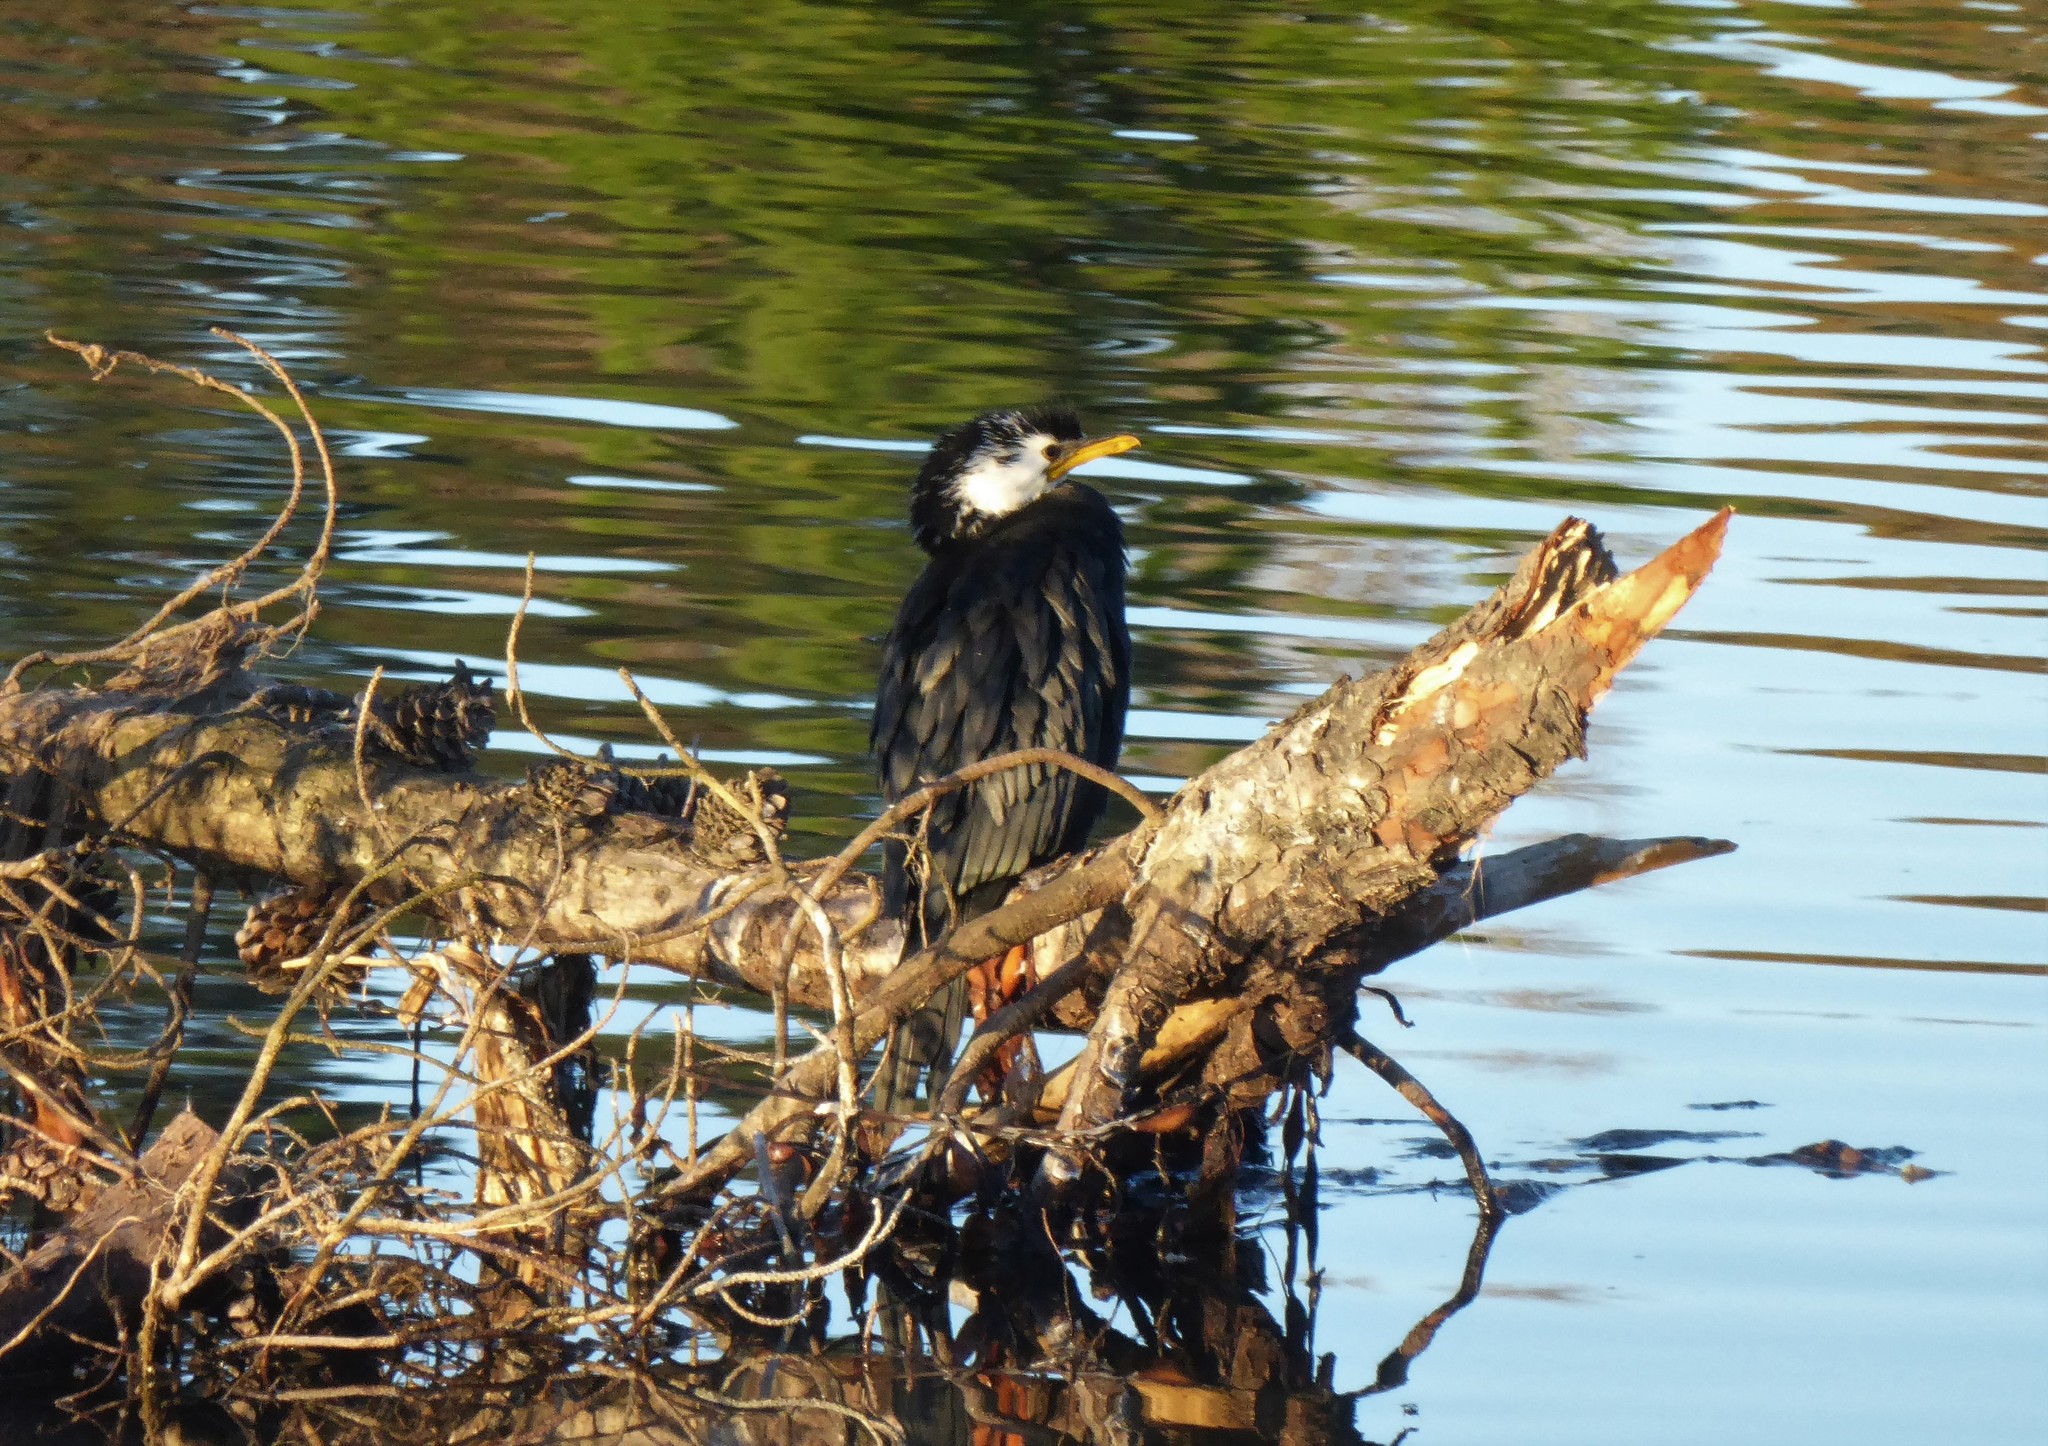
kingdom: Animalia
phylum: Chordata
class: Aves
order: Suliformes
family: Phalacrocoracidae
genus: Microcarbo
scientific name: Microcarbo melanoleucos
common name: Little pied cormorant
